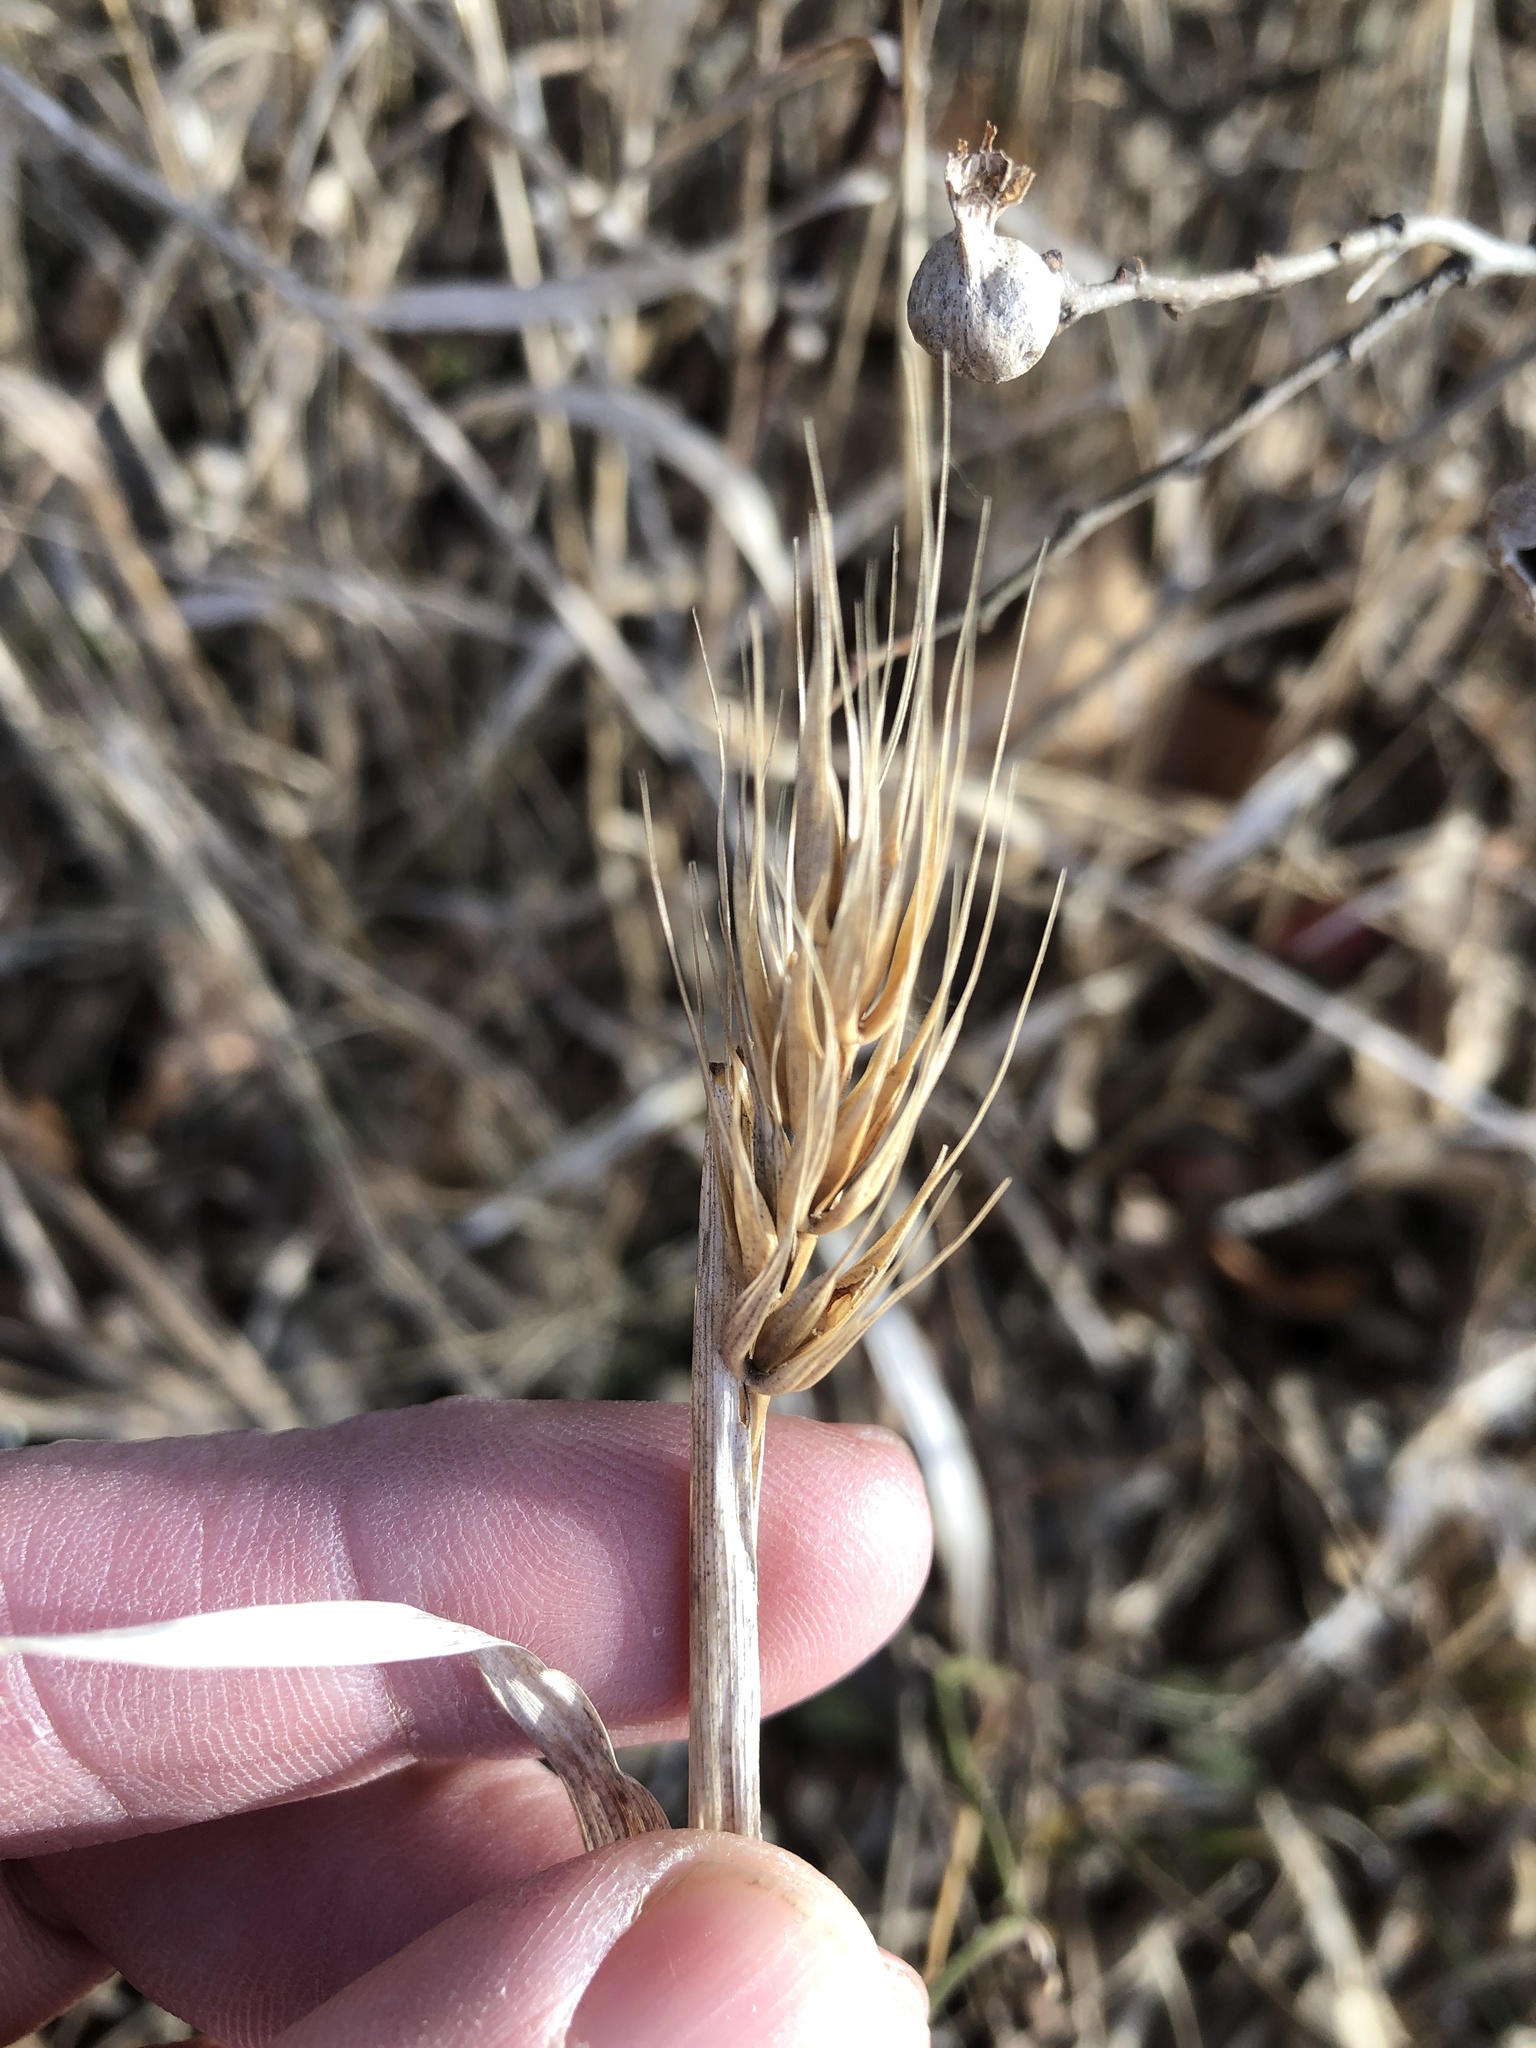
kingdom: Plantae
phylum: Tracheophyta
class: Liliopsida
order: Poales
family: Poaceae
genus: Elymus
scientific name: Elymus virginicus
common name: Common eastern wildrye
